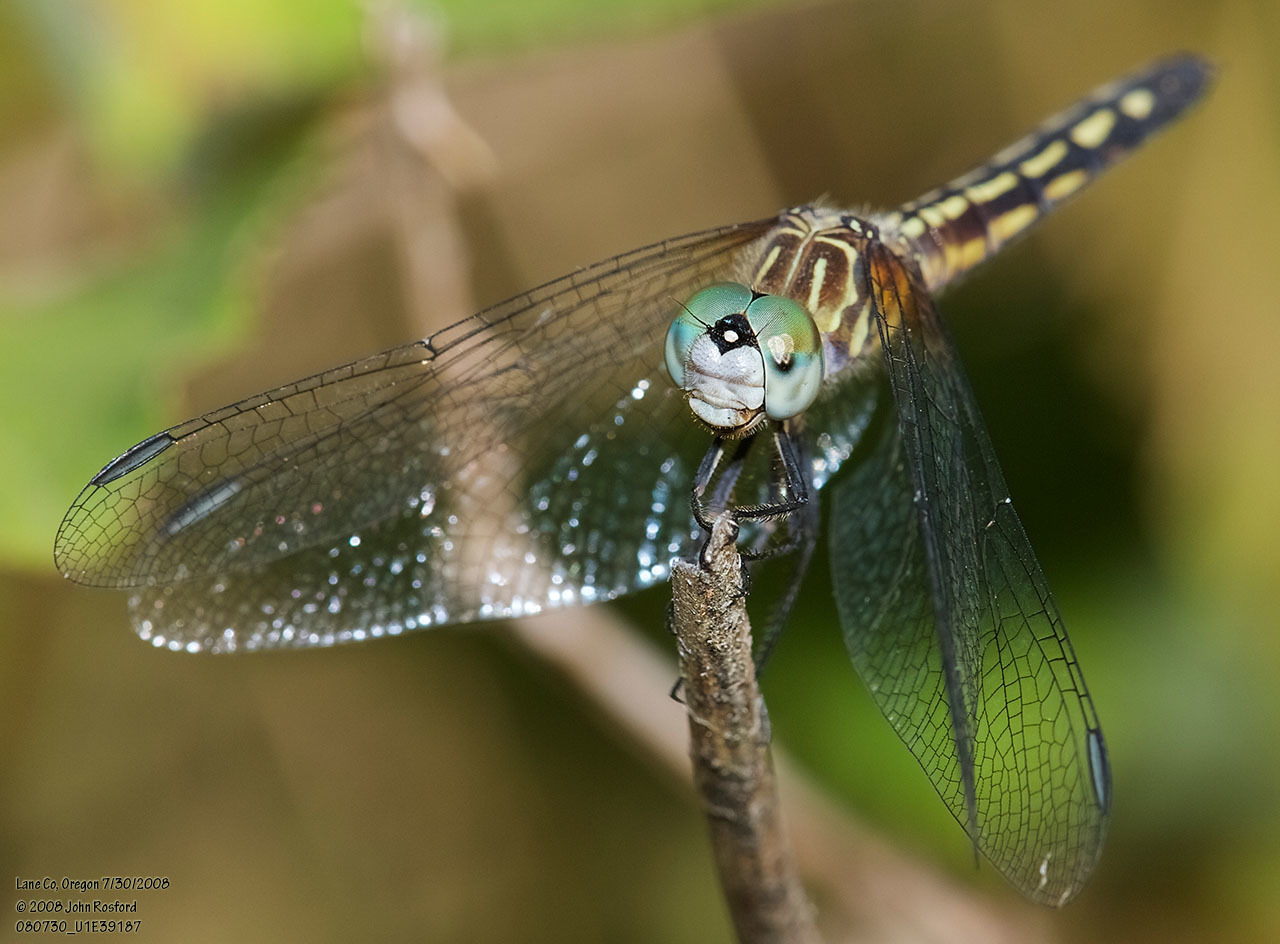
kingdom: Animalia
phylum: Arthropoda
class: Insecta
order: Odonata
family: Libellulidae
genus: Pachydiplax
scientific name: Pachydiplax longipennis
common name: Blue dasher
